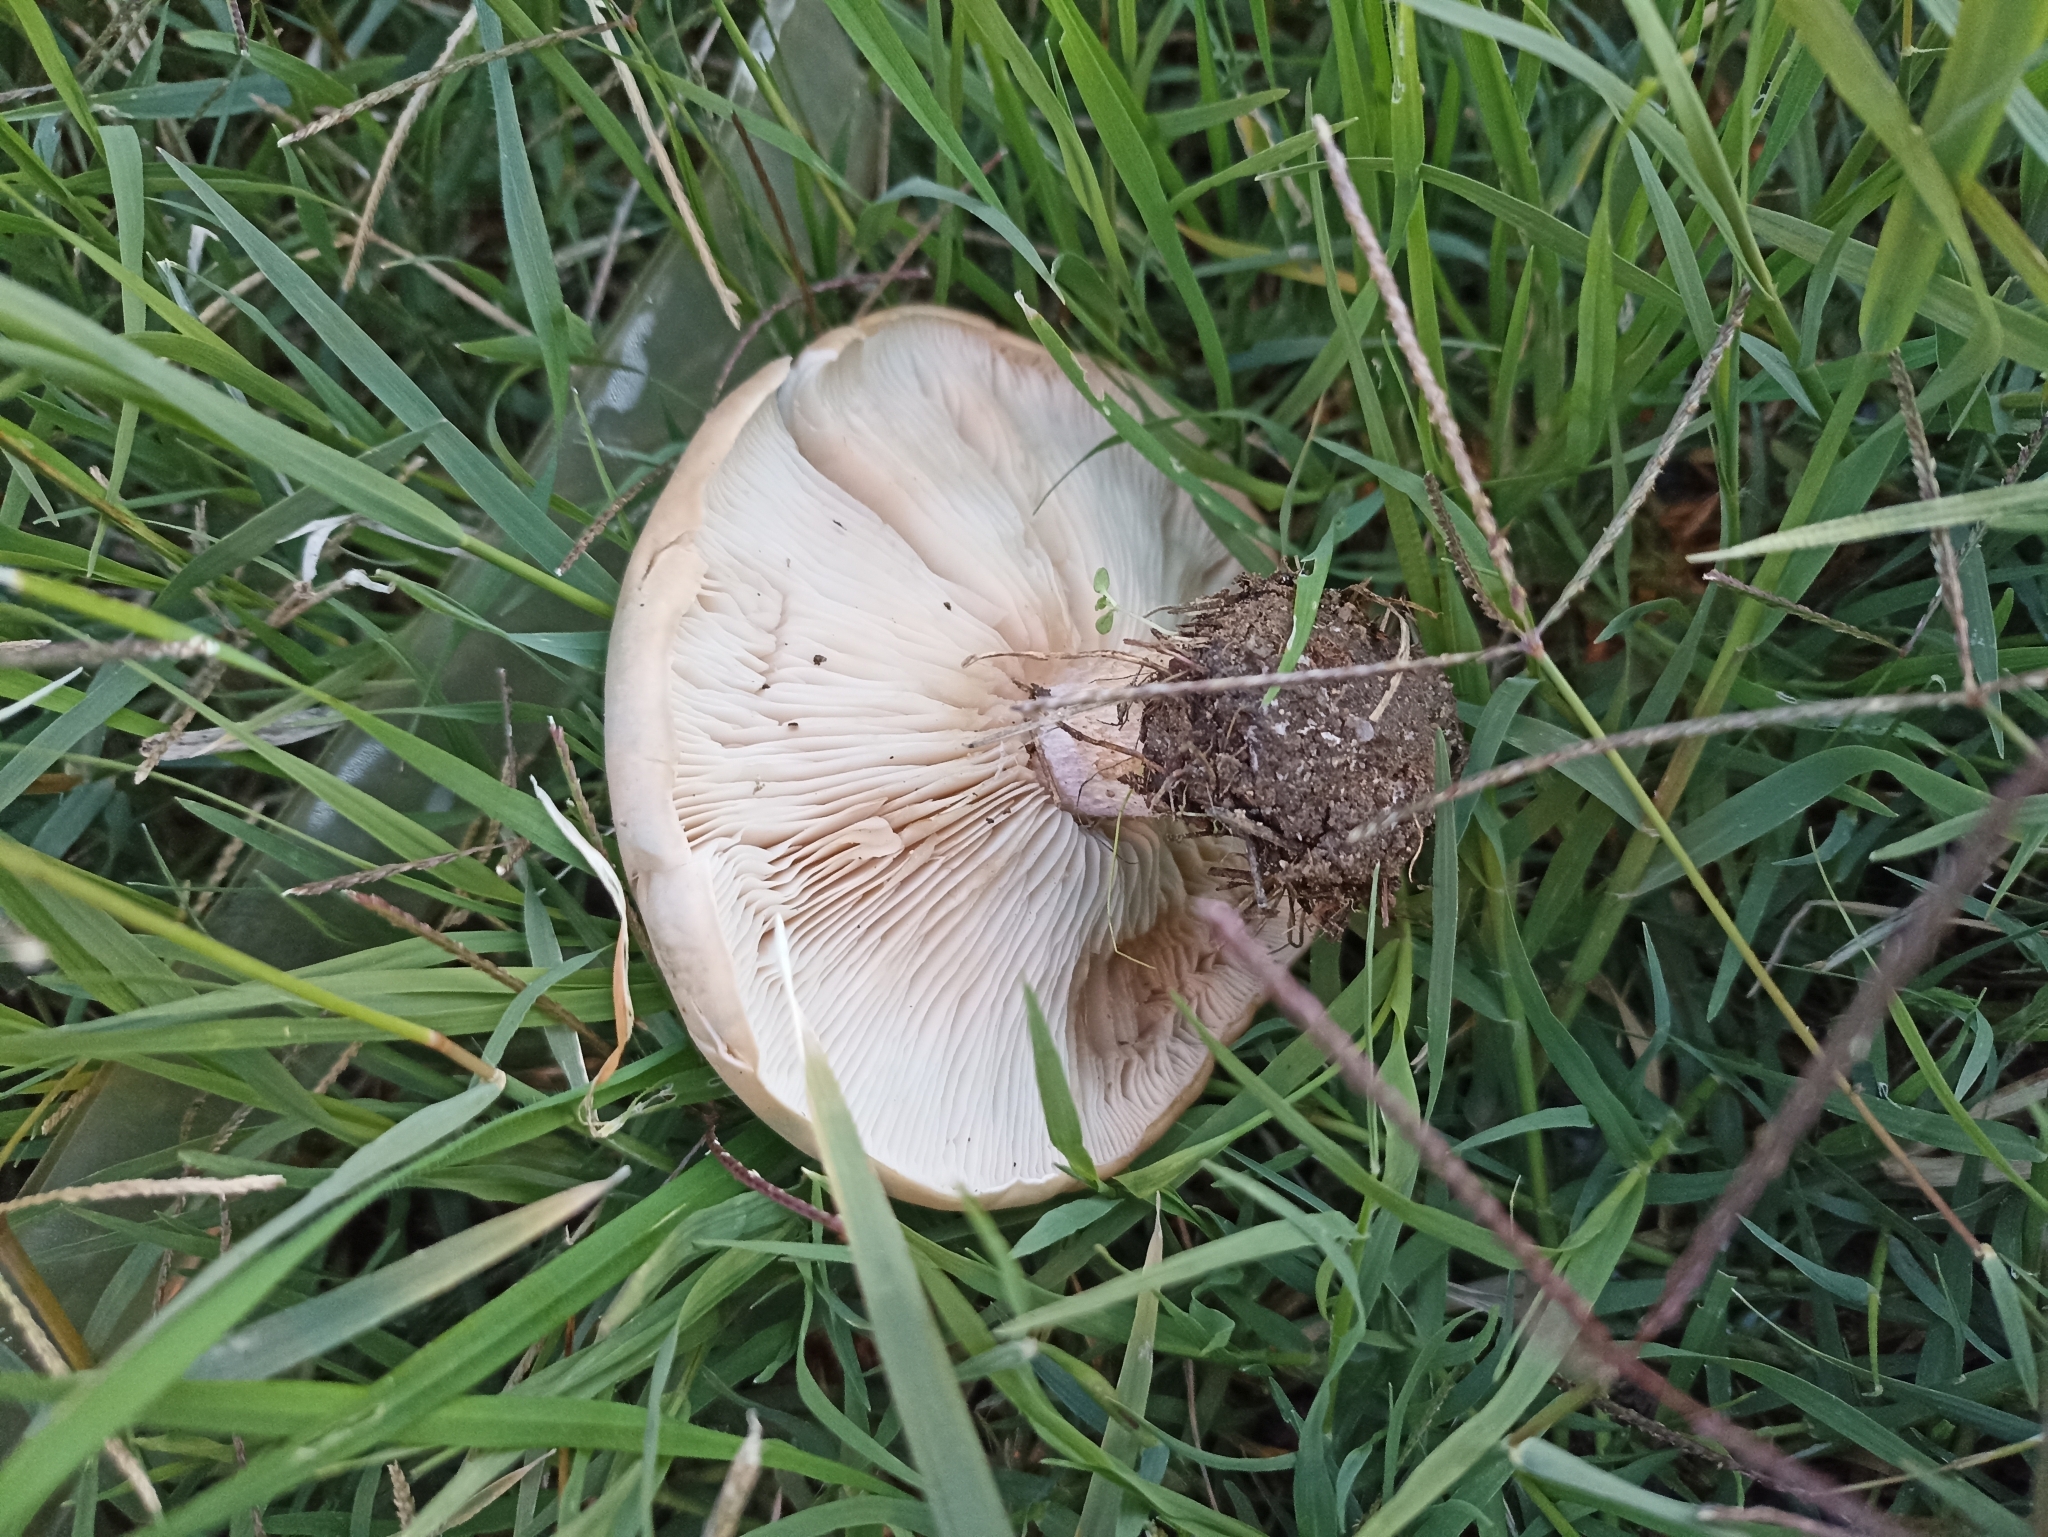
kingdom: Fungi
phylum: Basidiomycota
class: Agaricomycetes
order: Agaricales
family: Omphalotaceae
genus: Collybiopsis
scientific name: Collybiopsis peronata
